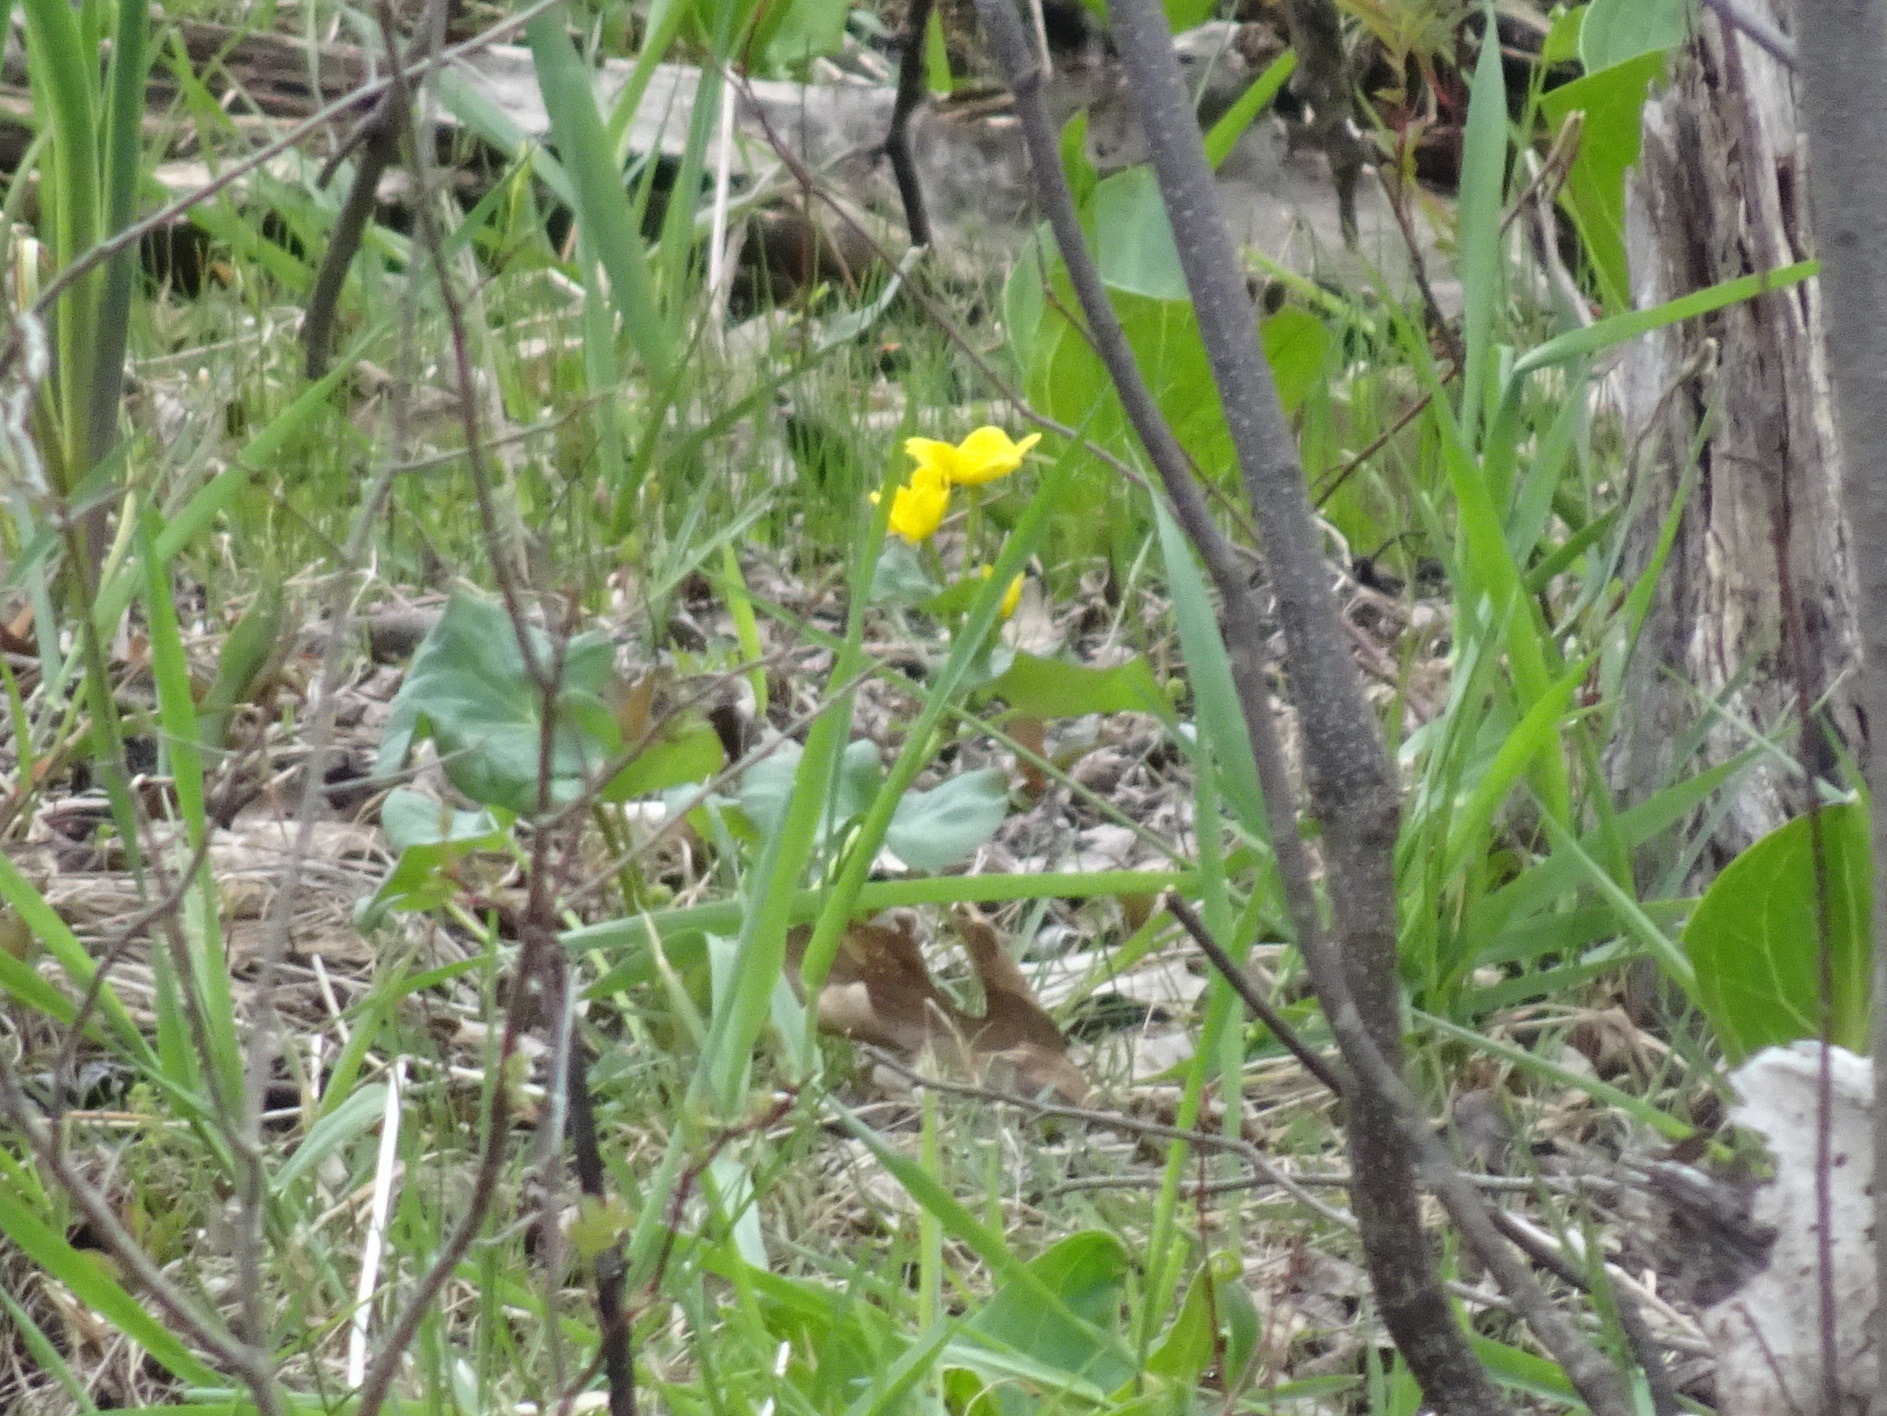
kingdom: Plantae
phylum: Tracheophyta
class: Magnoliopsida
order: Ranunculales
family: Ranunculaceae
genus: Caltha
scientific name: Caltha palustris
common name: Marsh marigold
